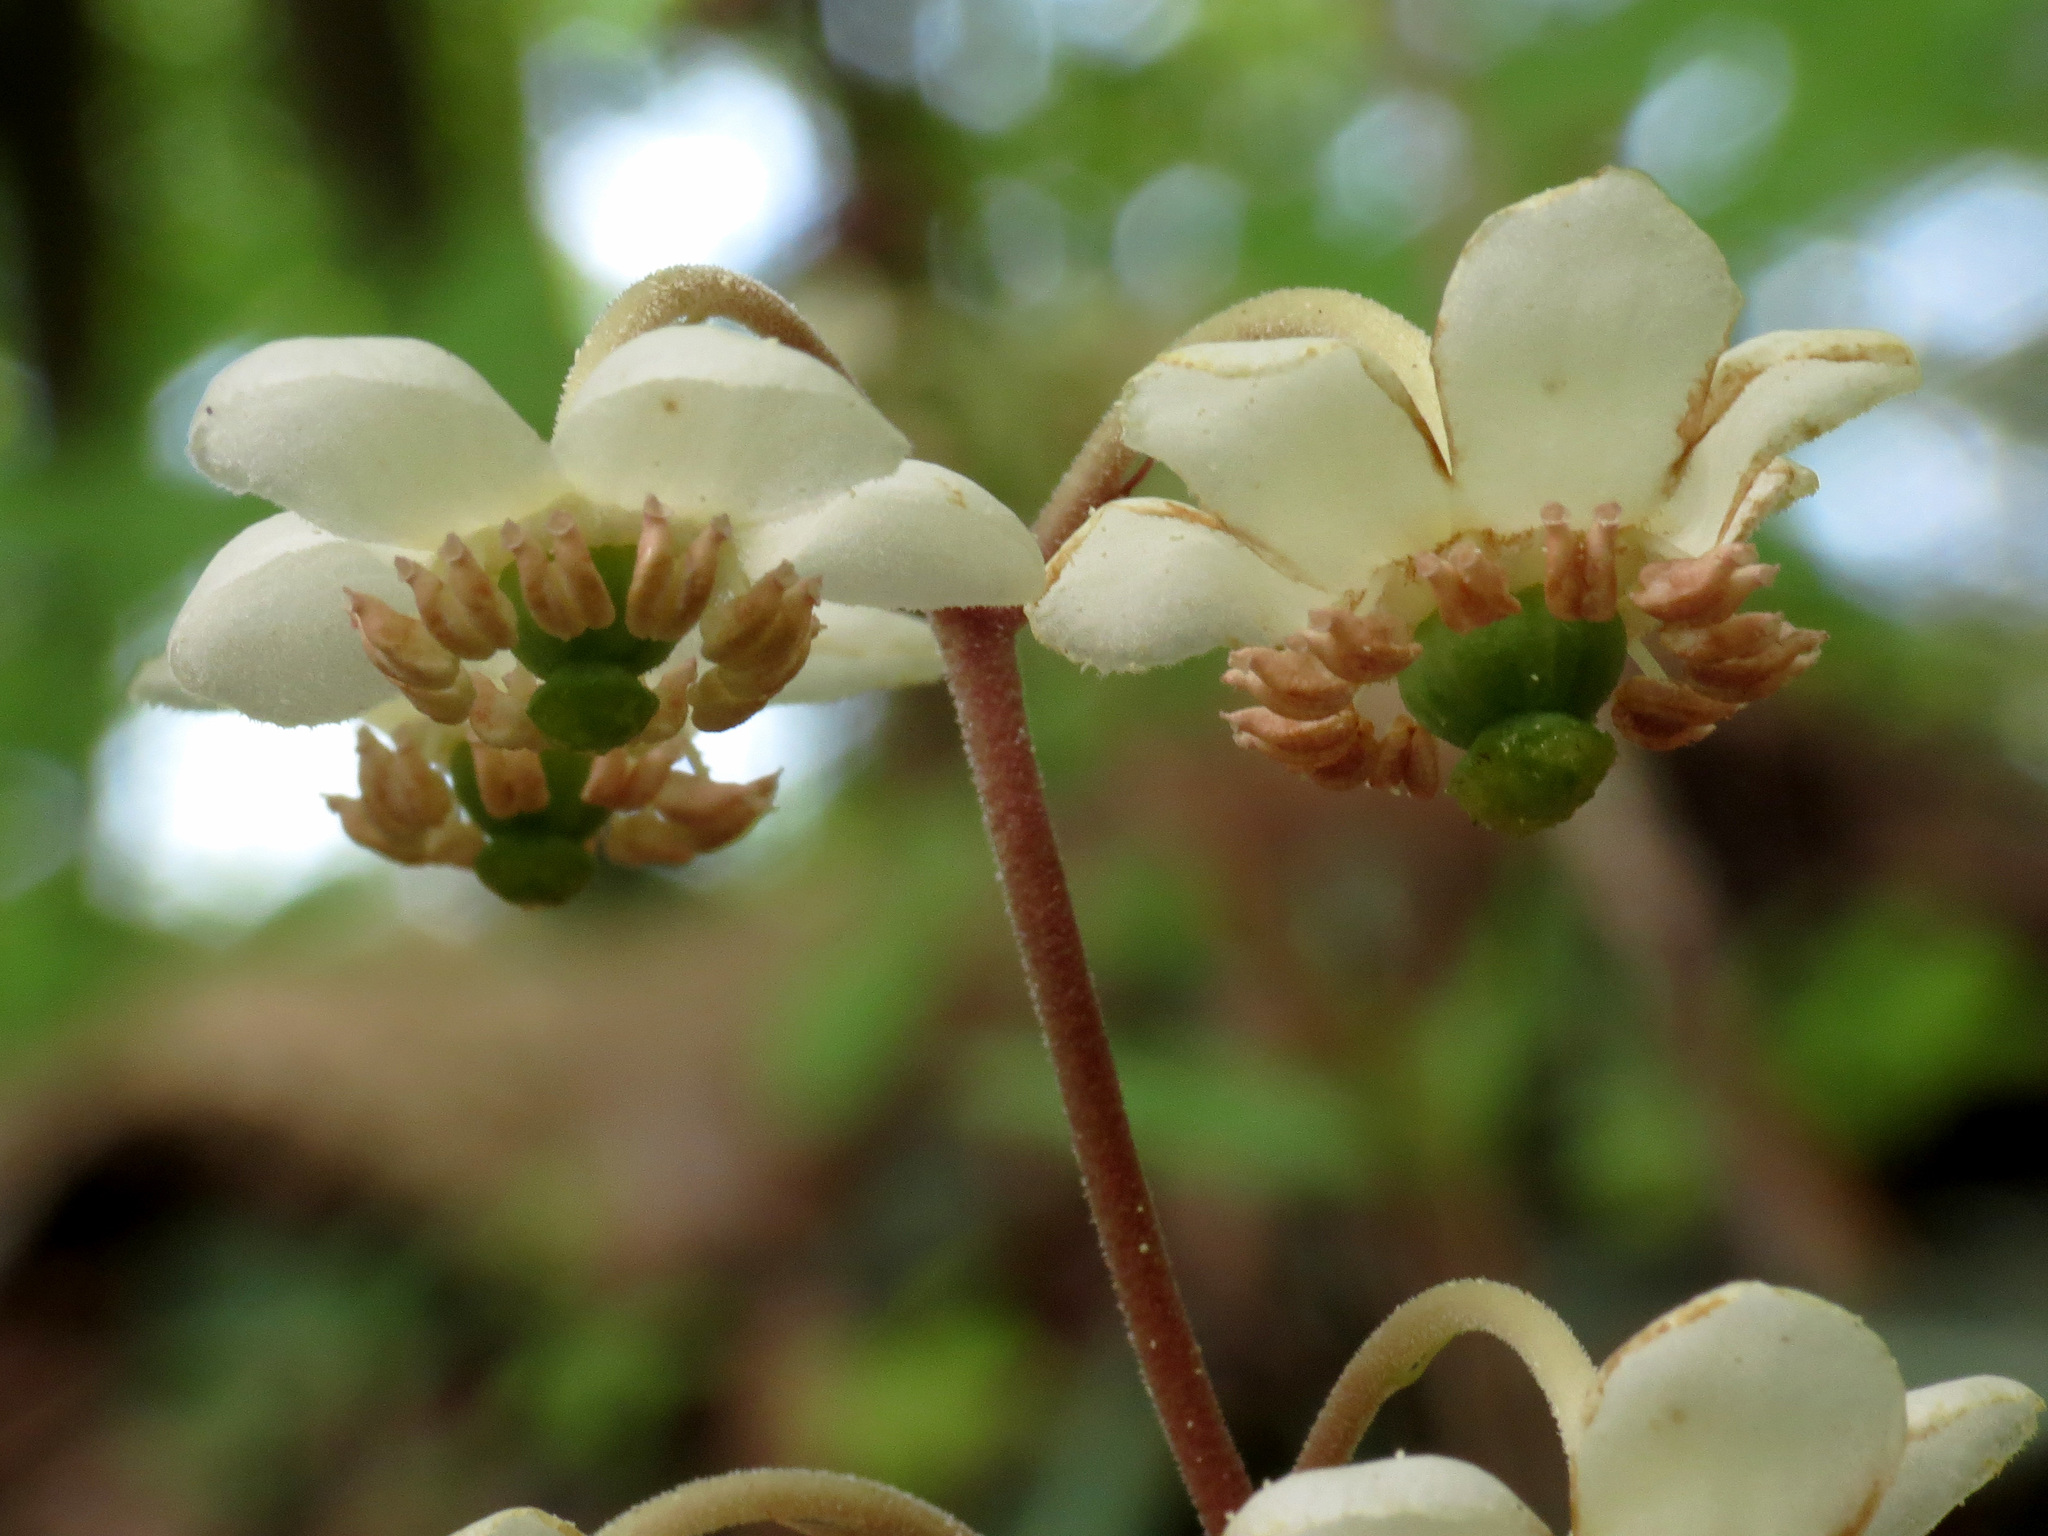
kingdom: Plantae
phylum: Tracheophyta
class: Magnoliopsida
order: Ericales
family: Ericaceae
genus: Chimaphila
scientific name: Chimaphila maculata
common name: Spotted pipsissewa
